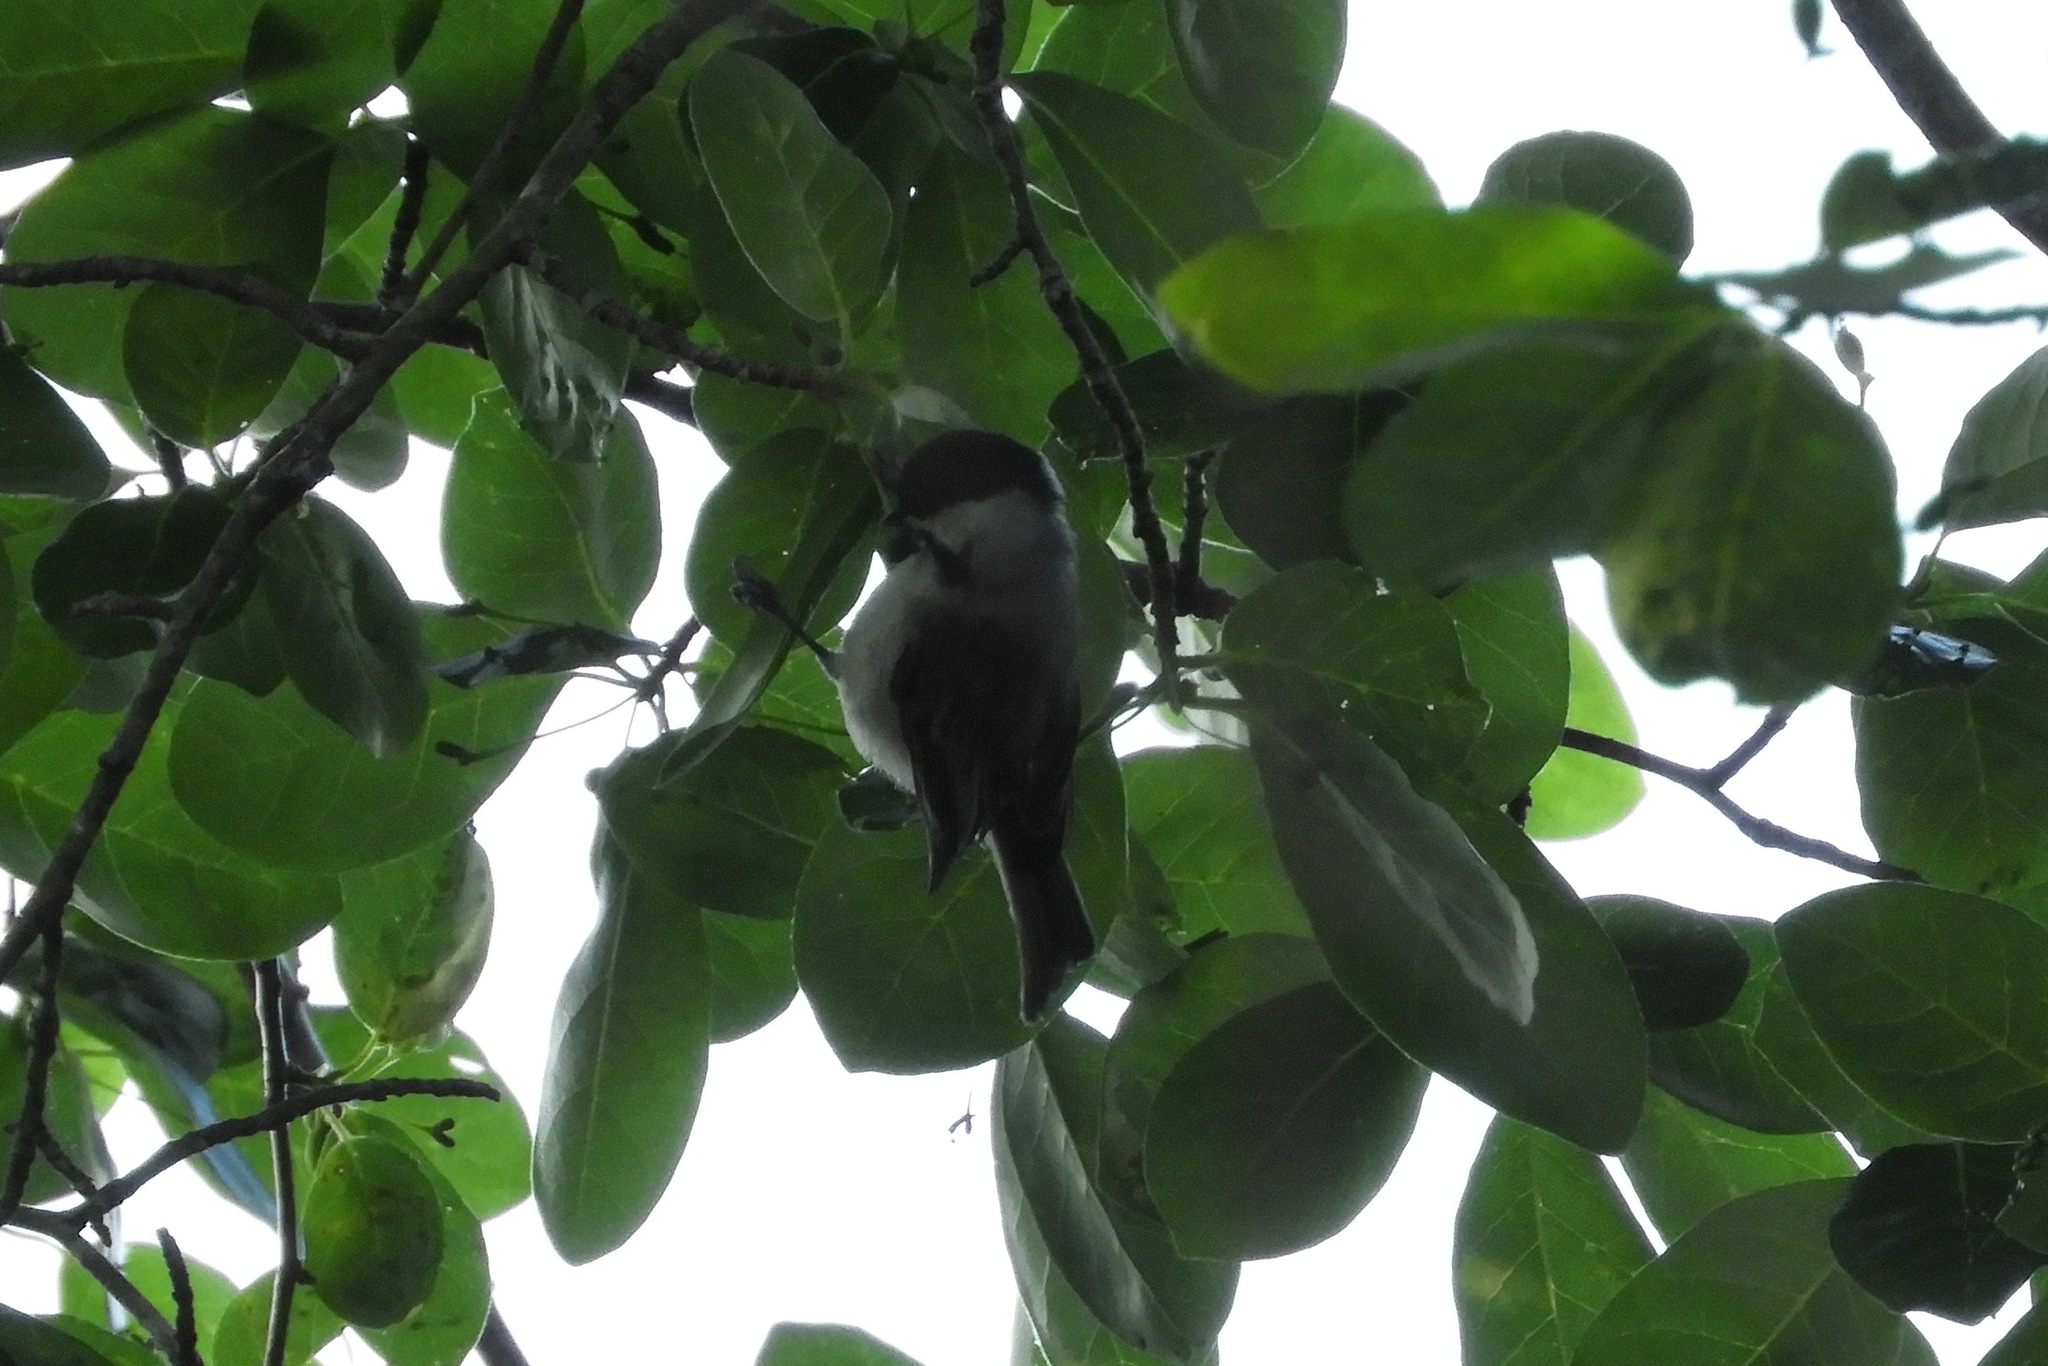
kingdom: Animalia
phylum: Chordata
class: Aves
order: Passeriformes
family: Paridae
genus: Poecile
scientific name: Poecile carolinensis
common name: Carolina chickadee
